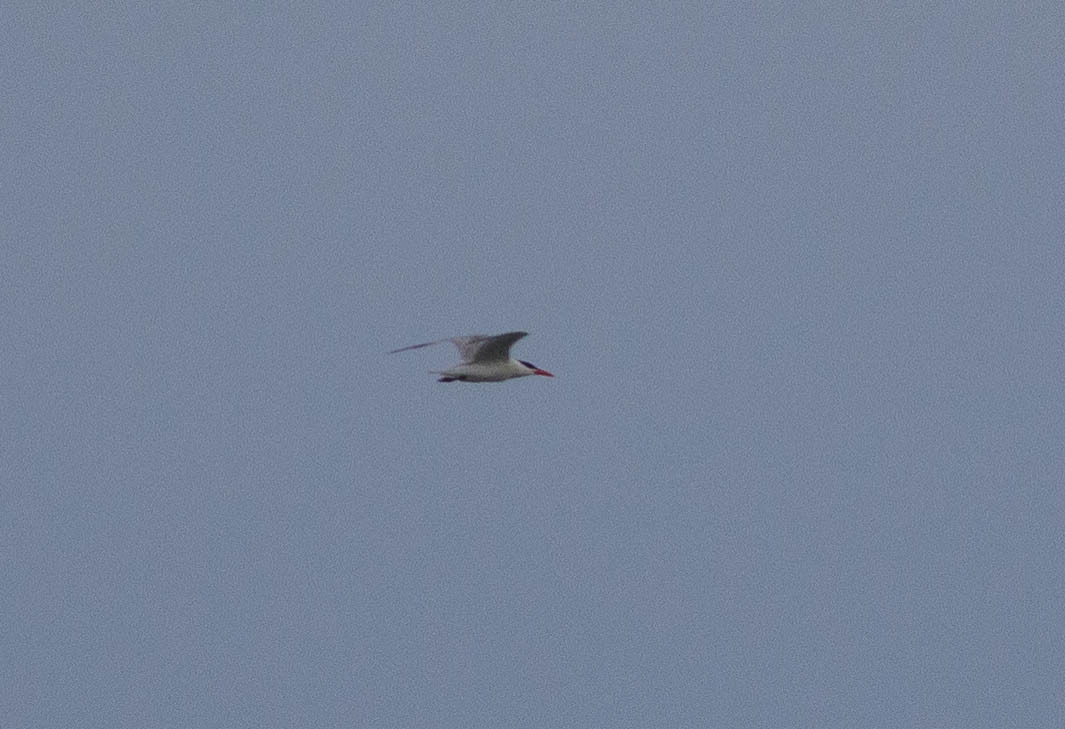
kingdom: Animalia
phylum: Chordata
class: Aves
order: Charadriiformes
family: Laridae
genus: Hydroprogne
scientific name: Hydroprogne caspia
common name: Caspian tern
